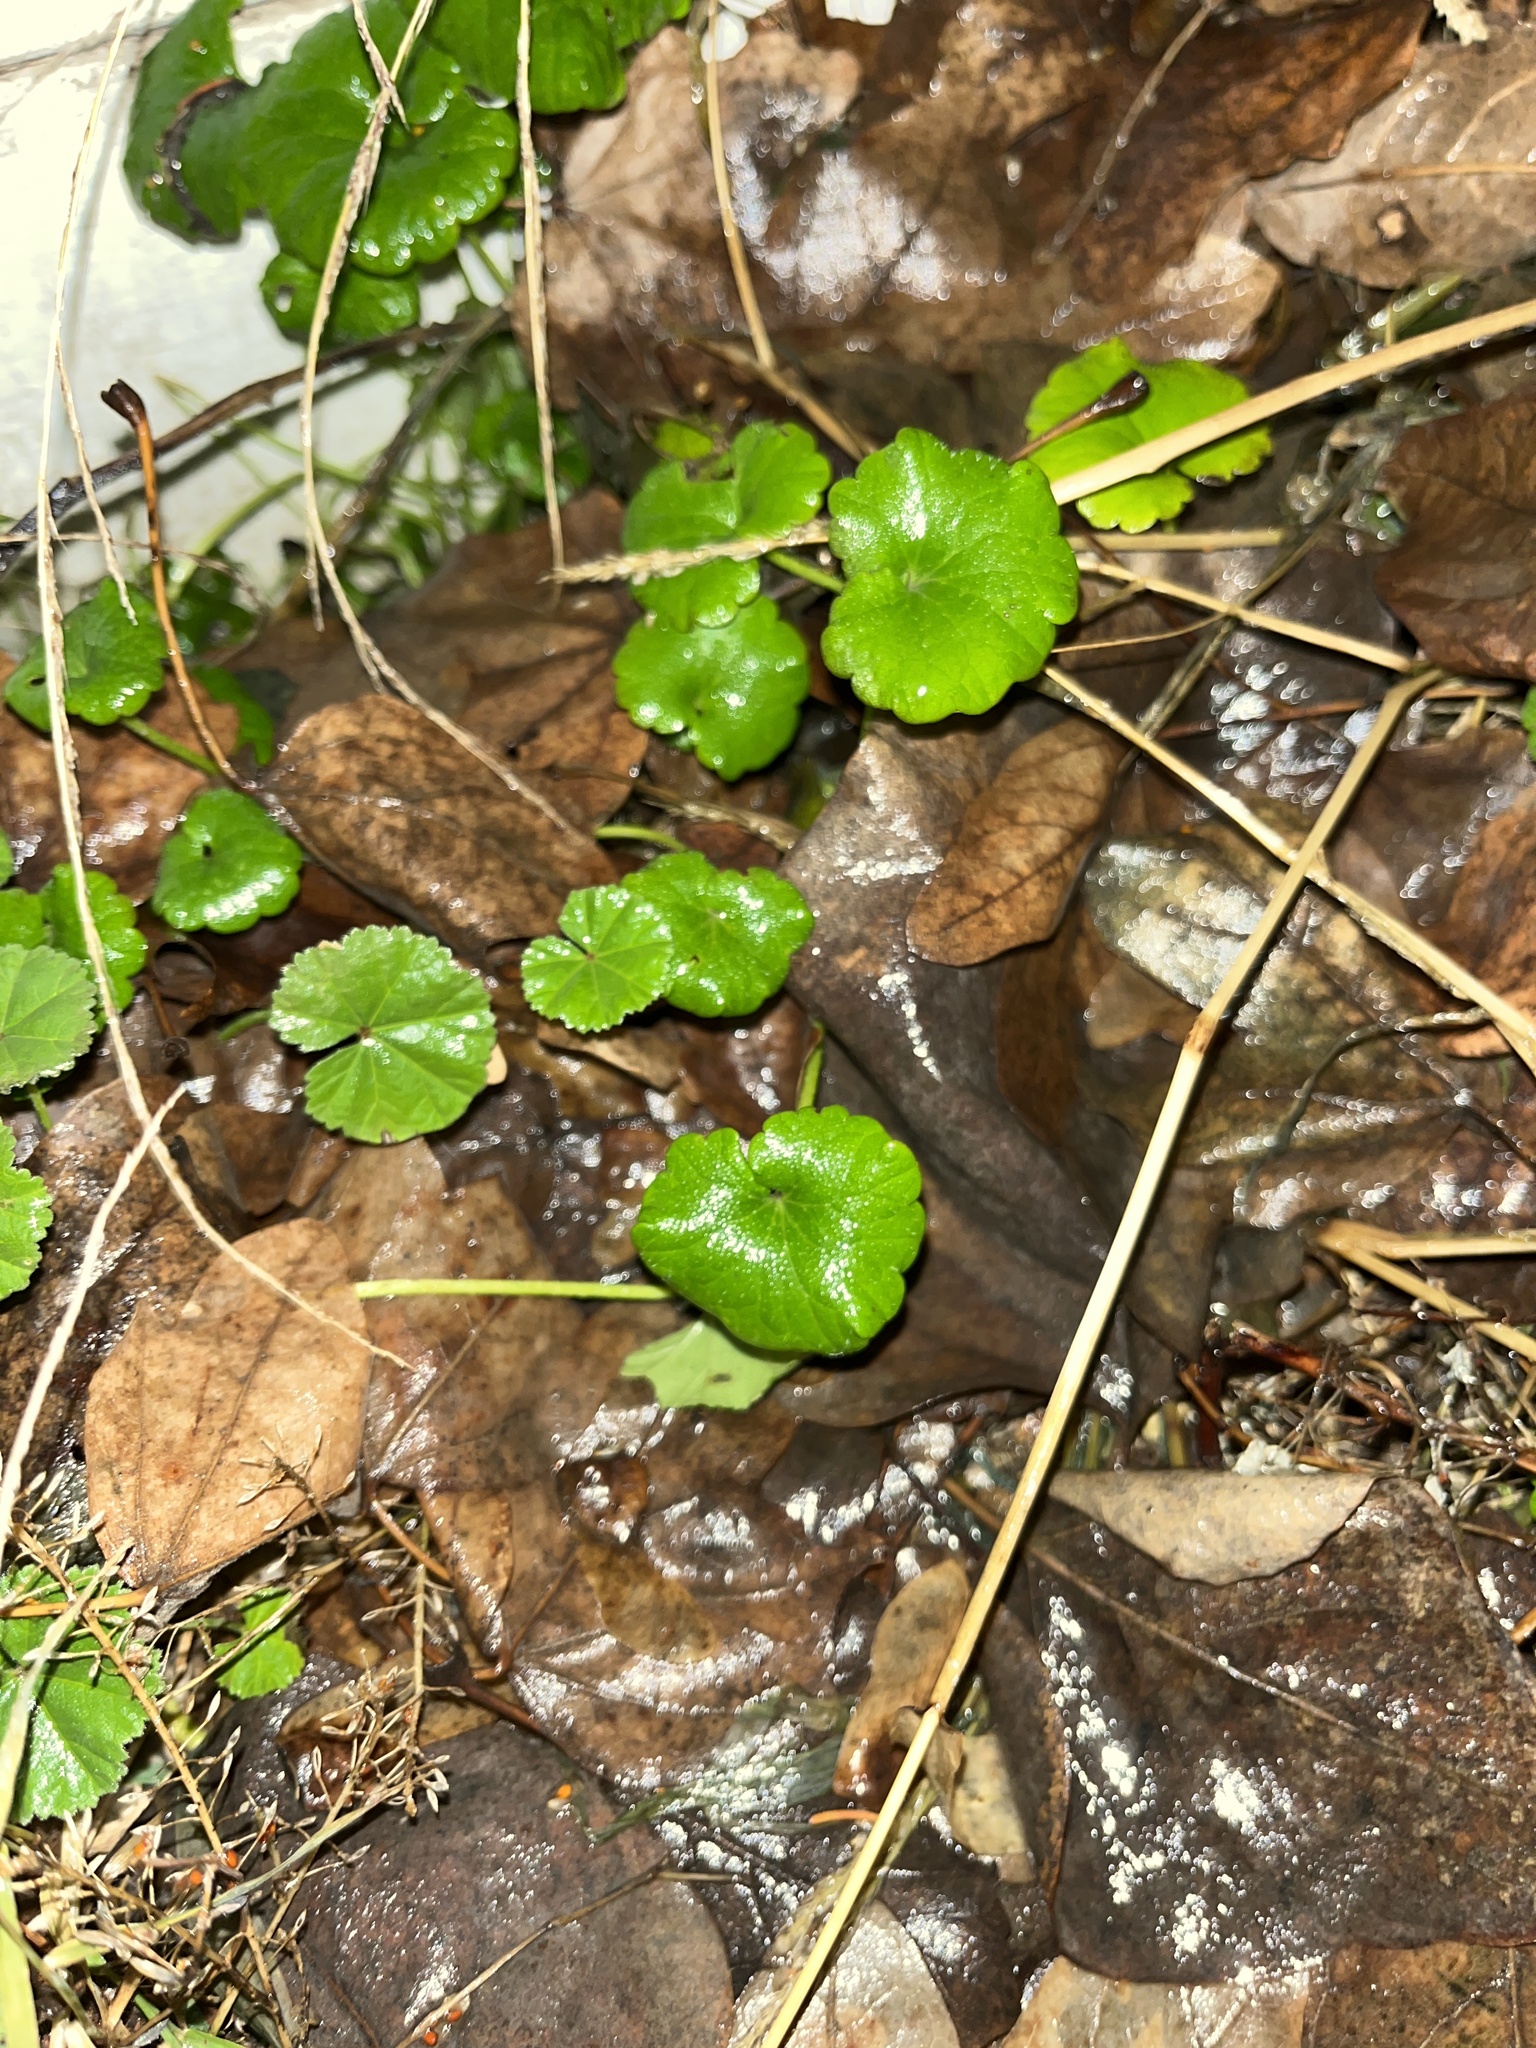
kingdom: Plantae
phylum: Tracheophyta
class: Magnoliopsida
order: Lamiales
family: Lamiaceae
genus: Glechoma
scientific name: Glechoma hederacea
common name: Ground ivy
